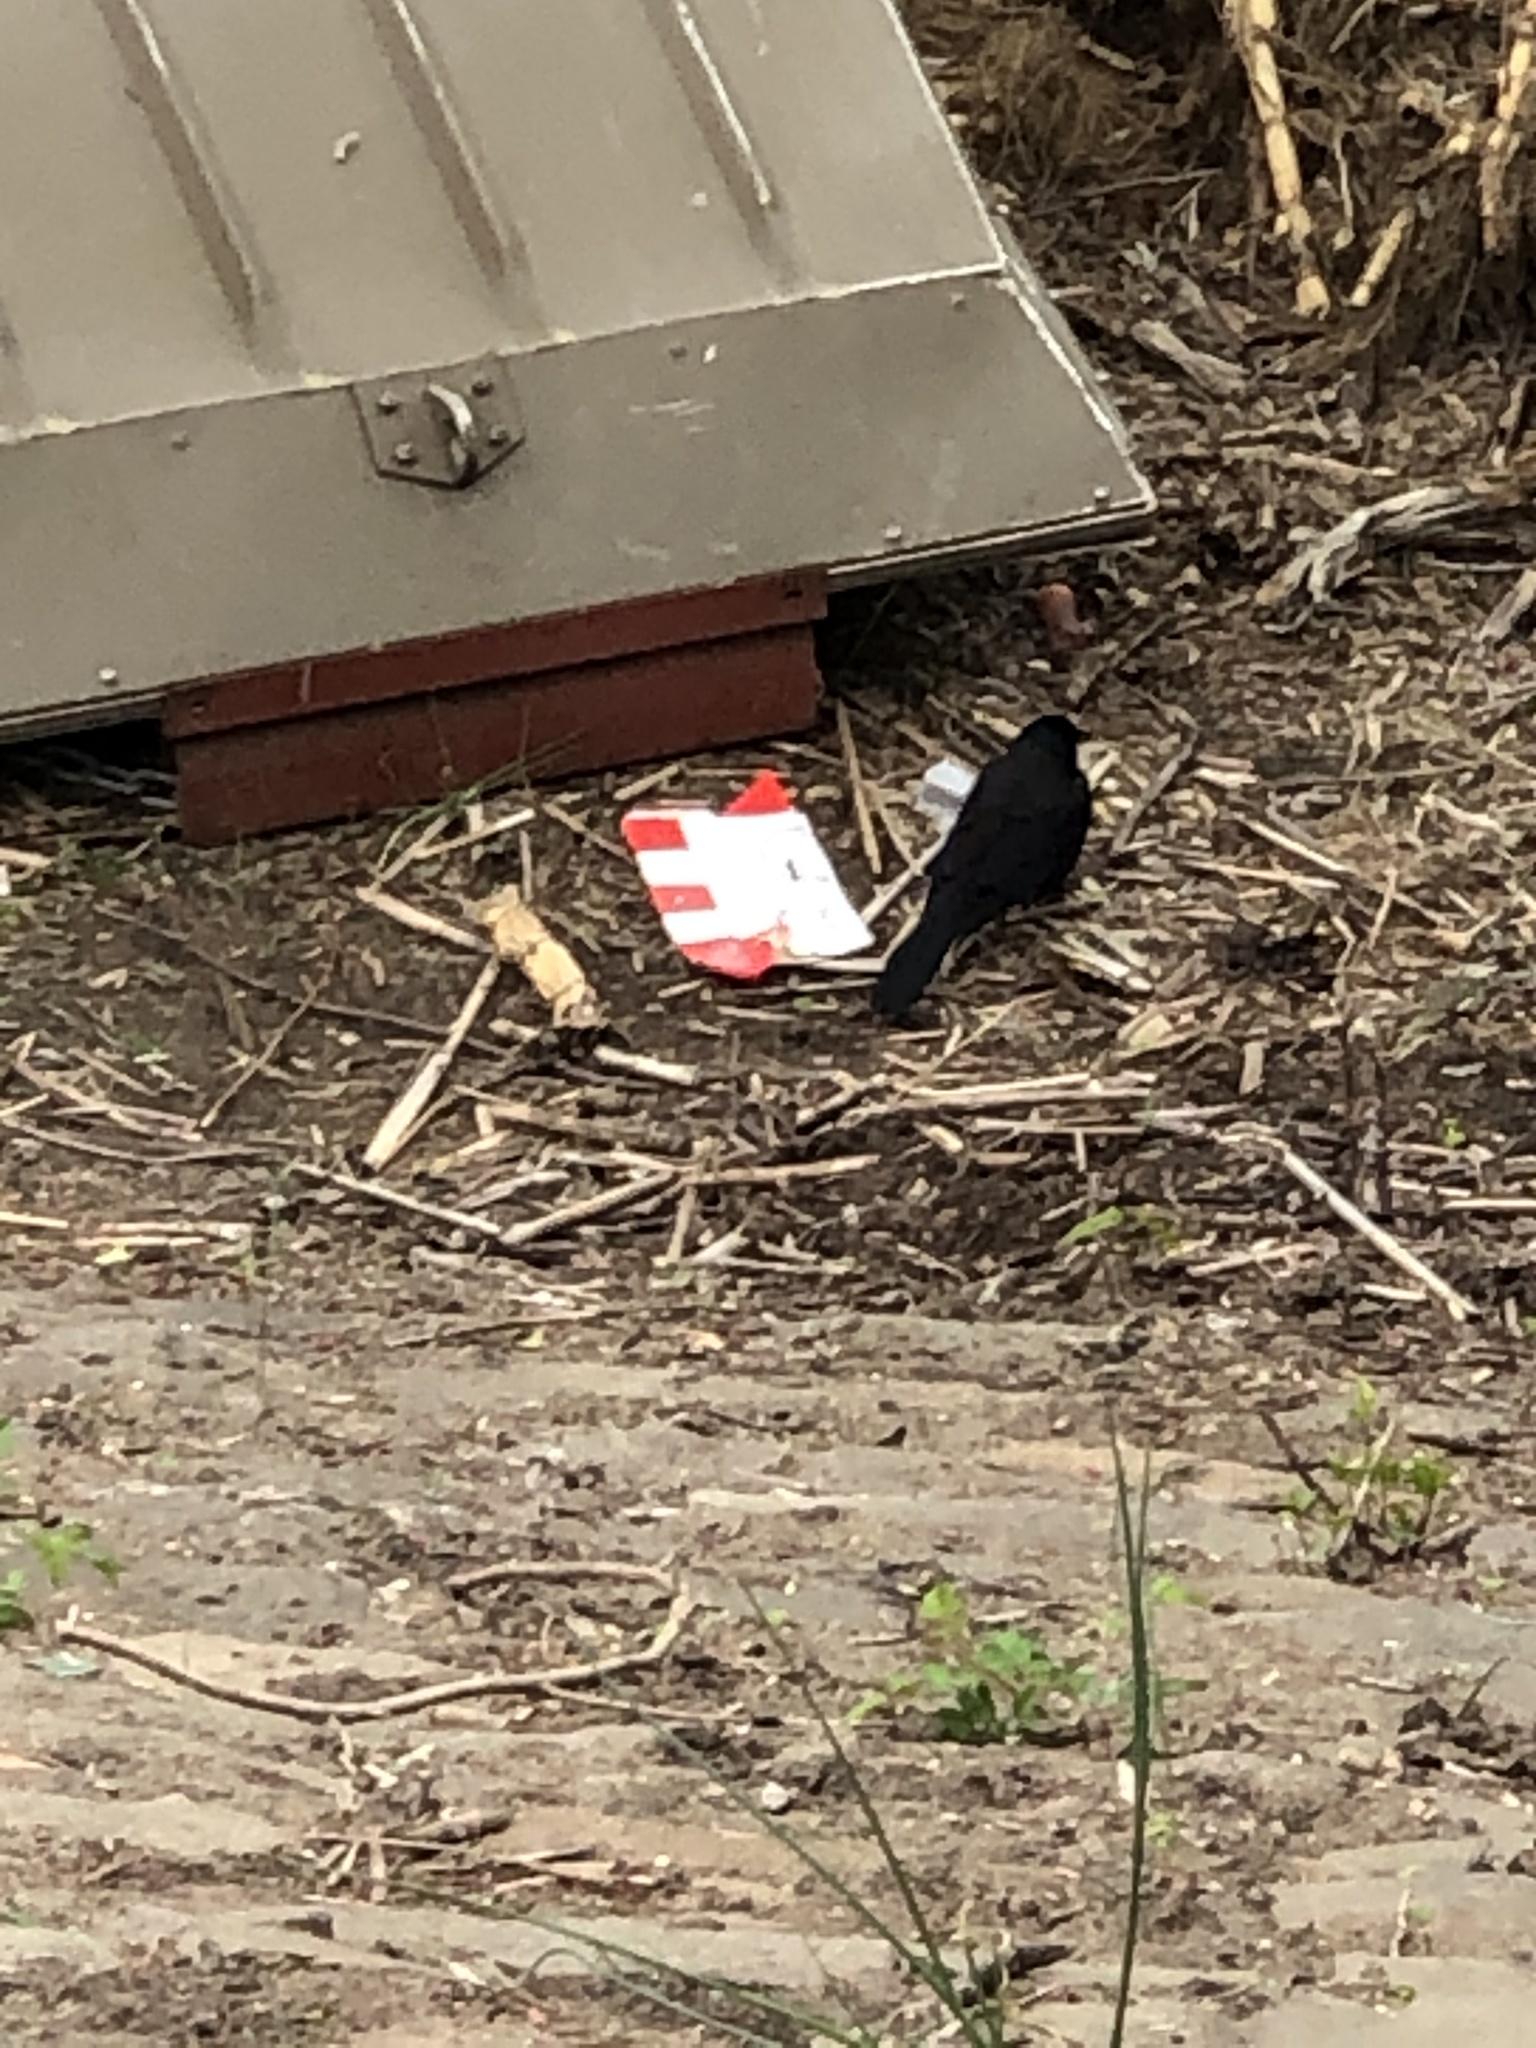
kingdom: Animalia
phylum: Chordata
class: Aves
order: Passeriformes
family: Icteridae
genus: Quiscalus
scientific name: Quiscalus quiscula
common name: Common grackle
